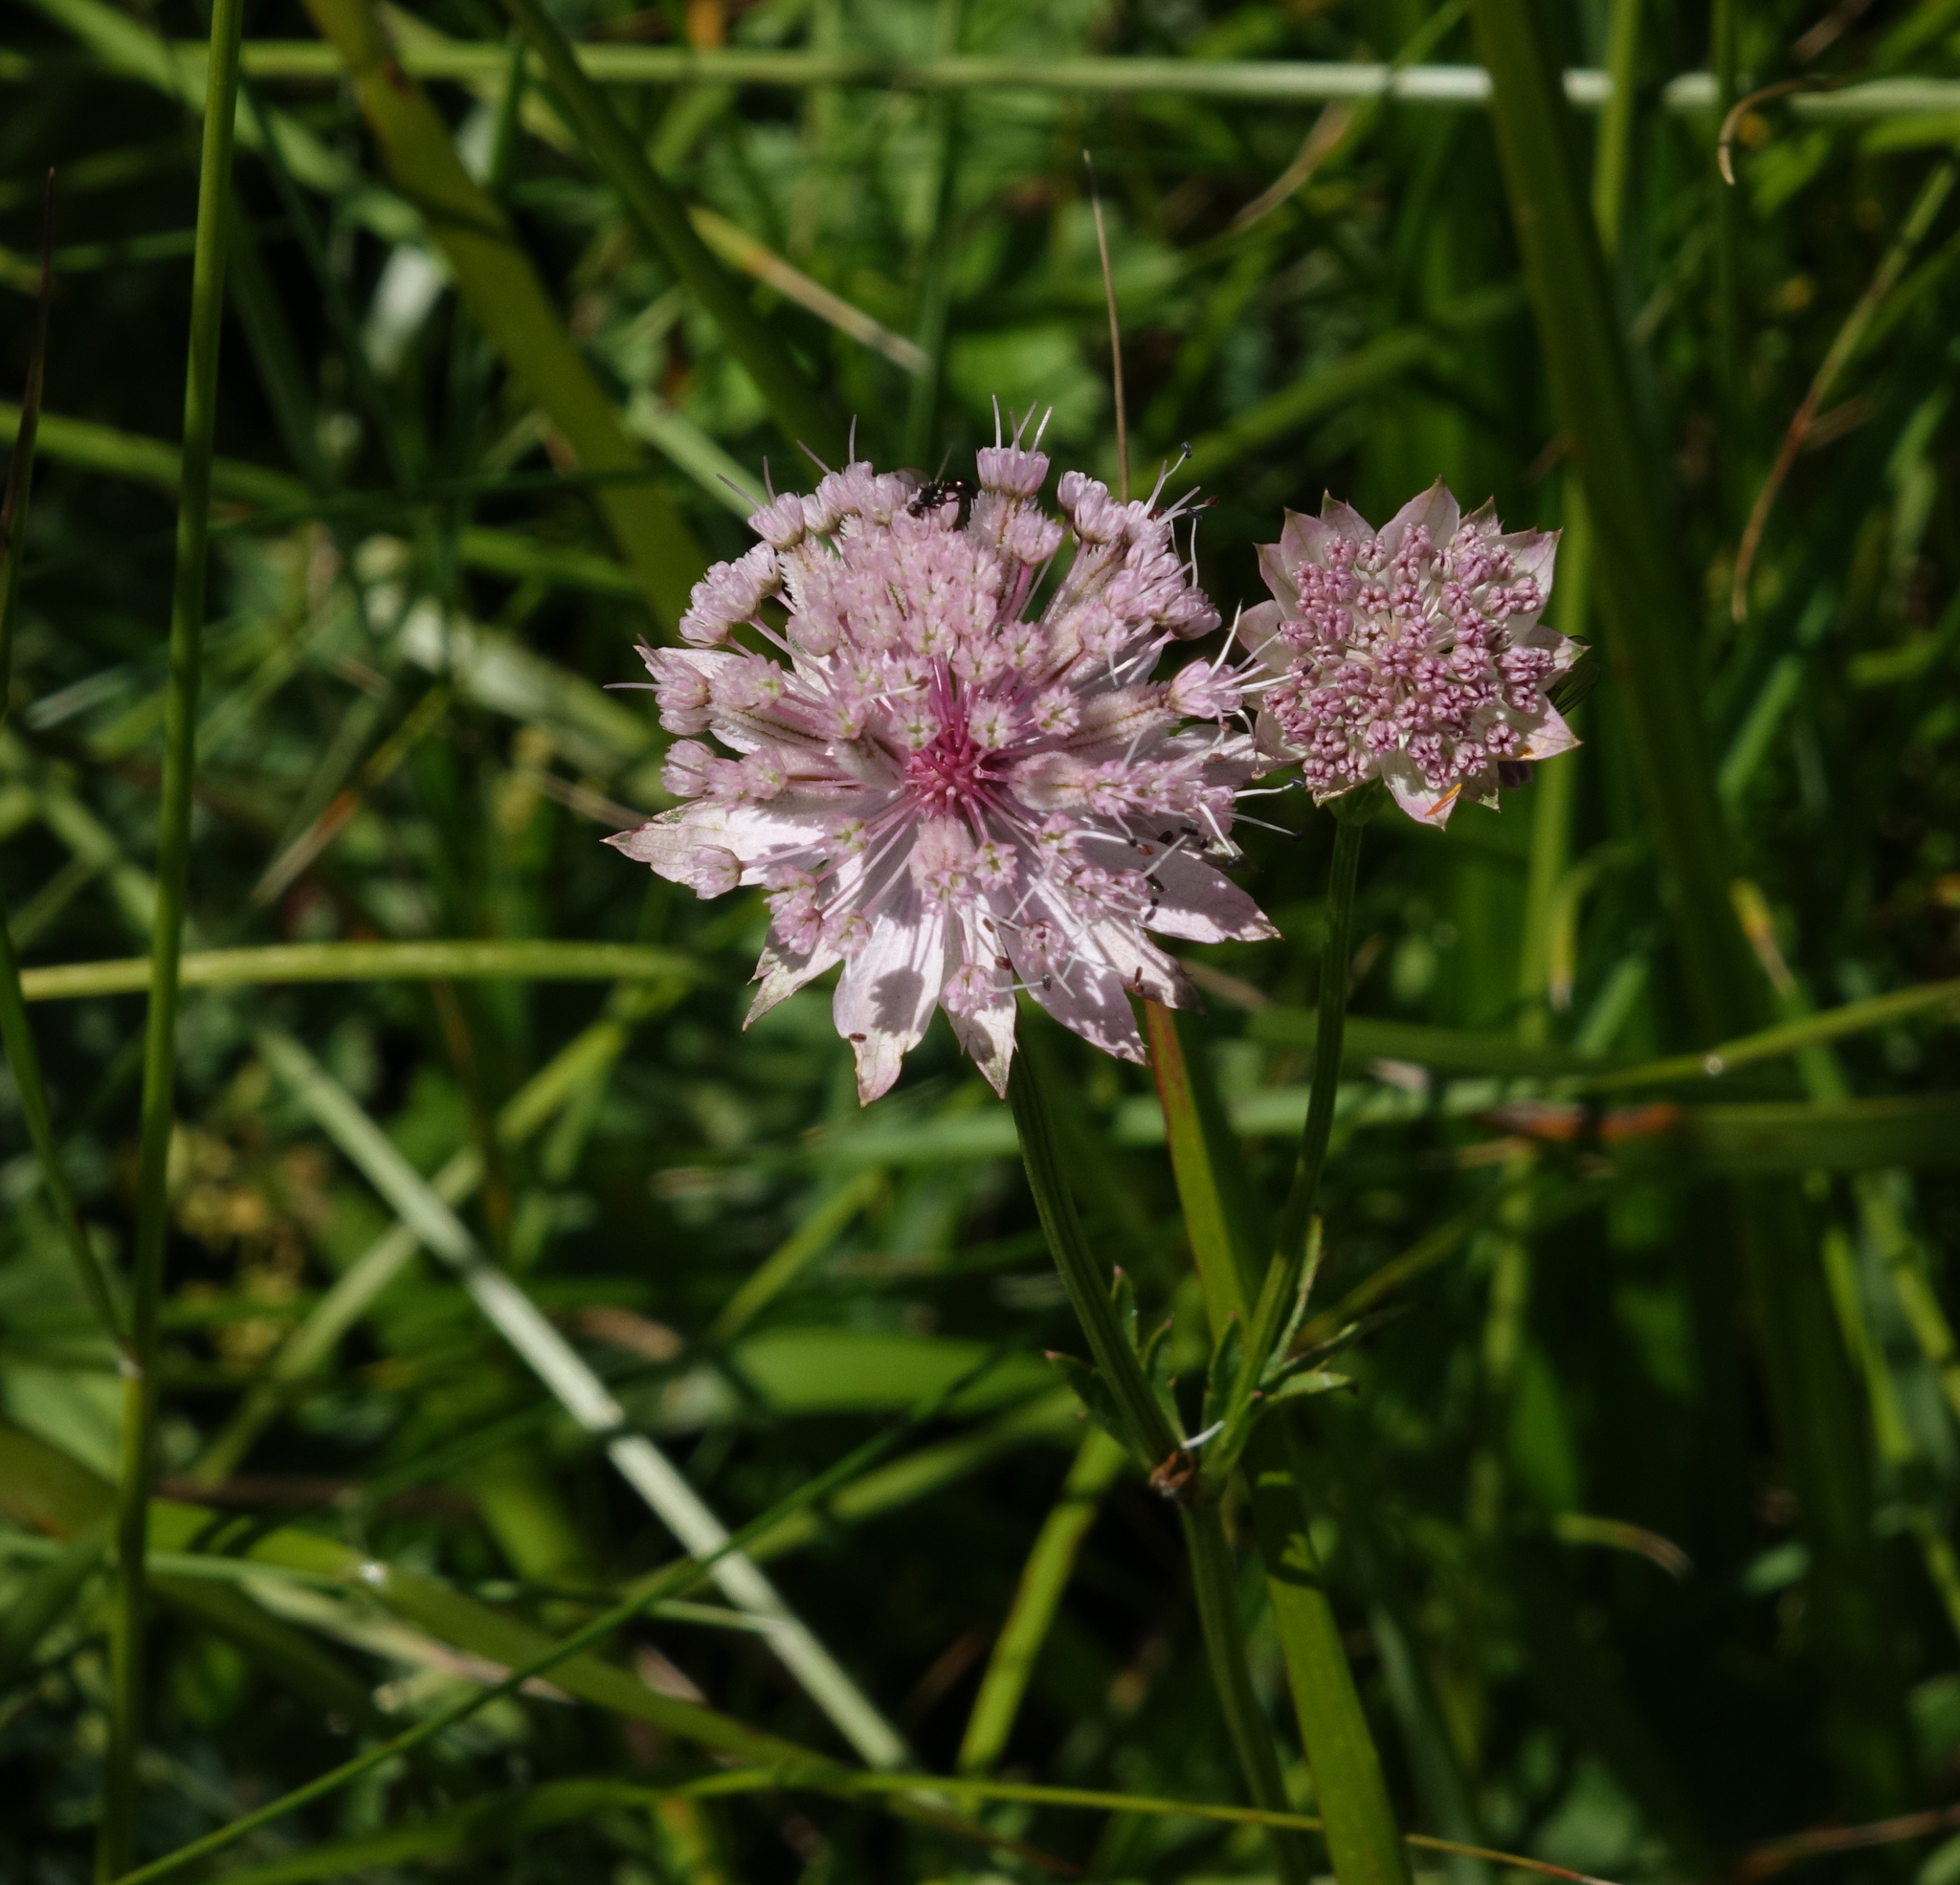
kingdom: Plantae
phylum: Tracheophyta
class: Magnoliopsida
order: Apiales
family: Apiaceae
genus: Astrantia
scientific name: Astrantia trifida
